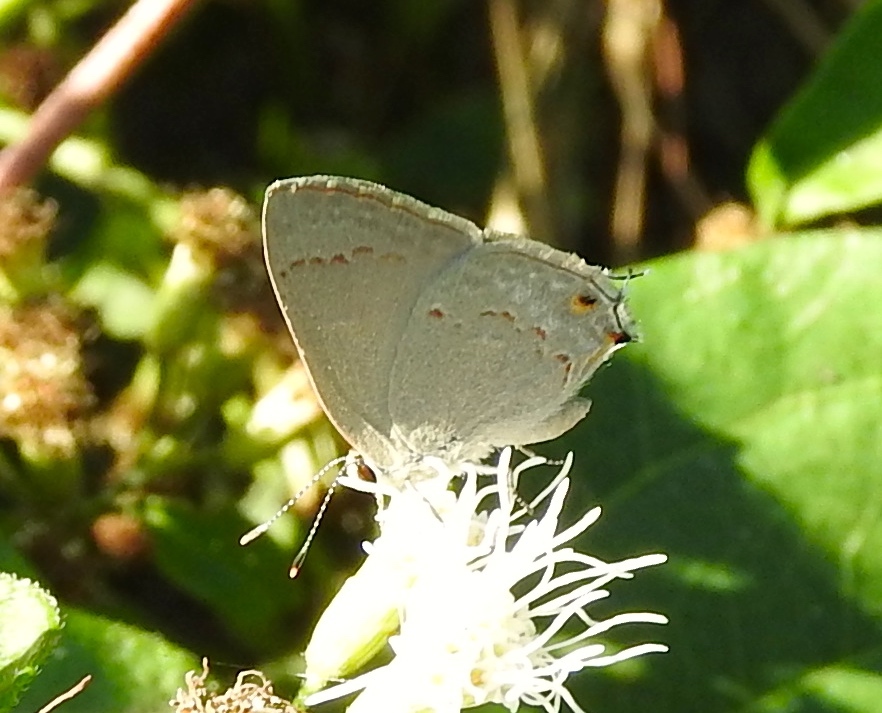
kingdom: Animalia
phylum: Arthropoda
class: Insecta
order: Lepidoptera
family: Lycaenidae
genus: Thecla
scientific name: Thecla rufofusca
